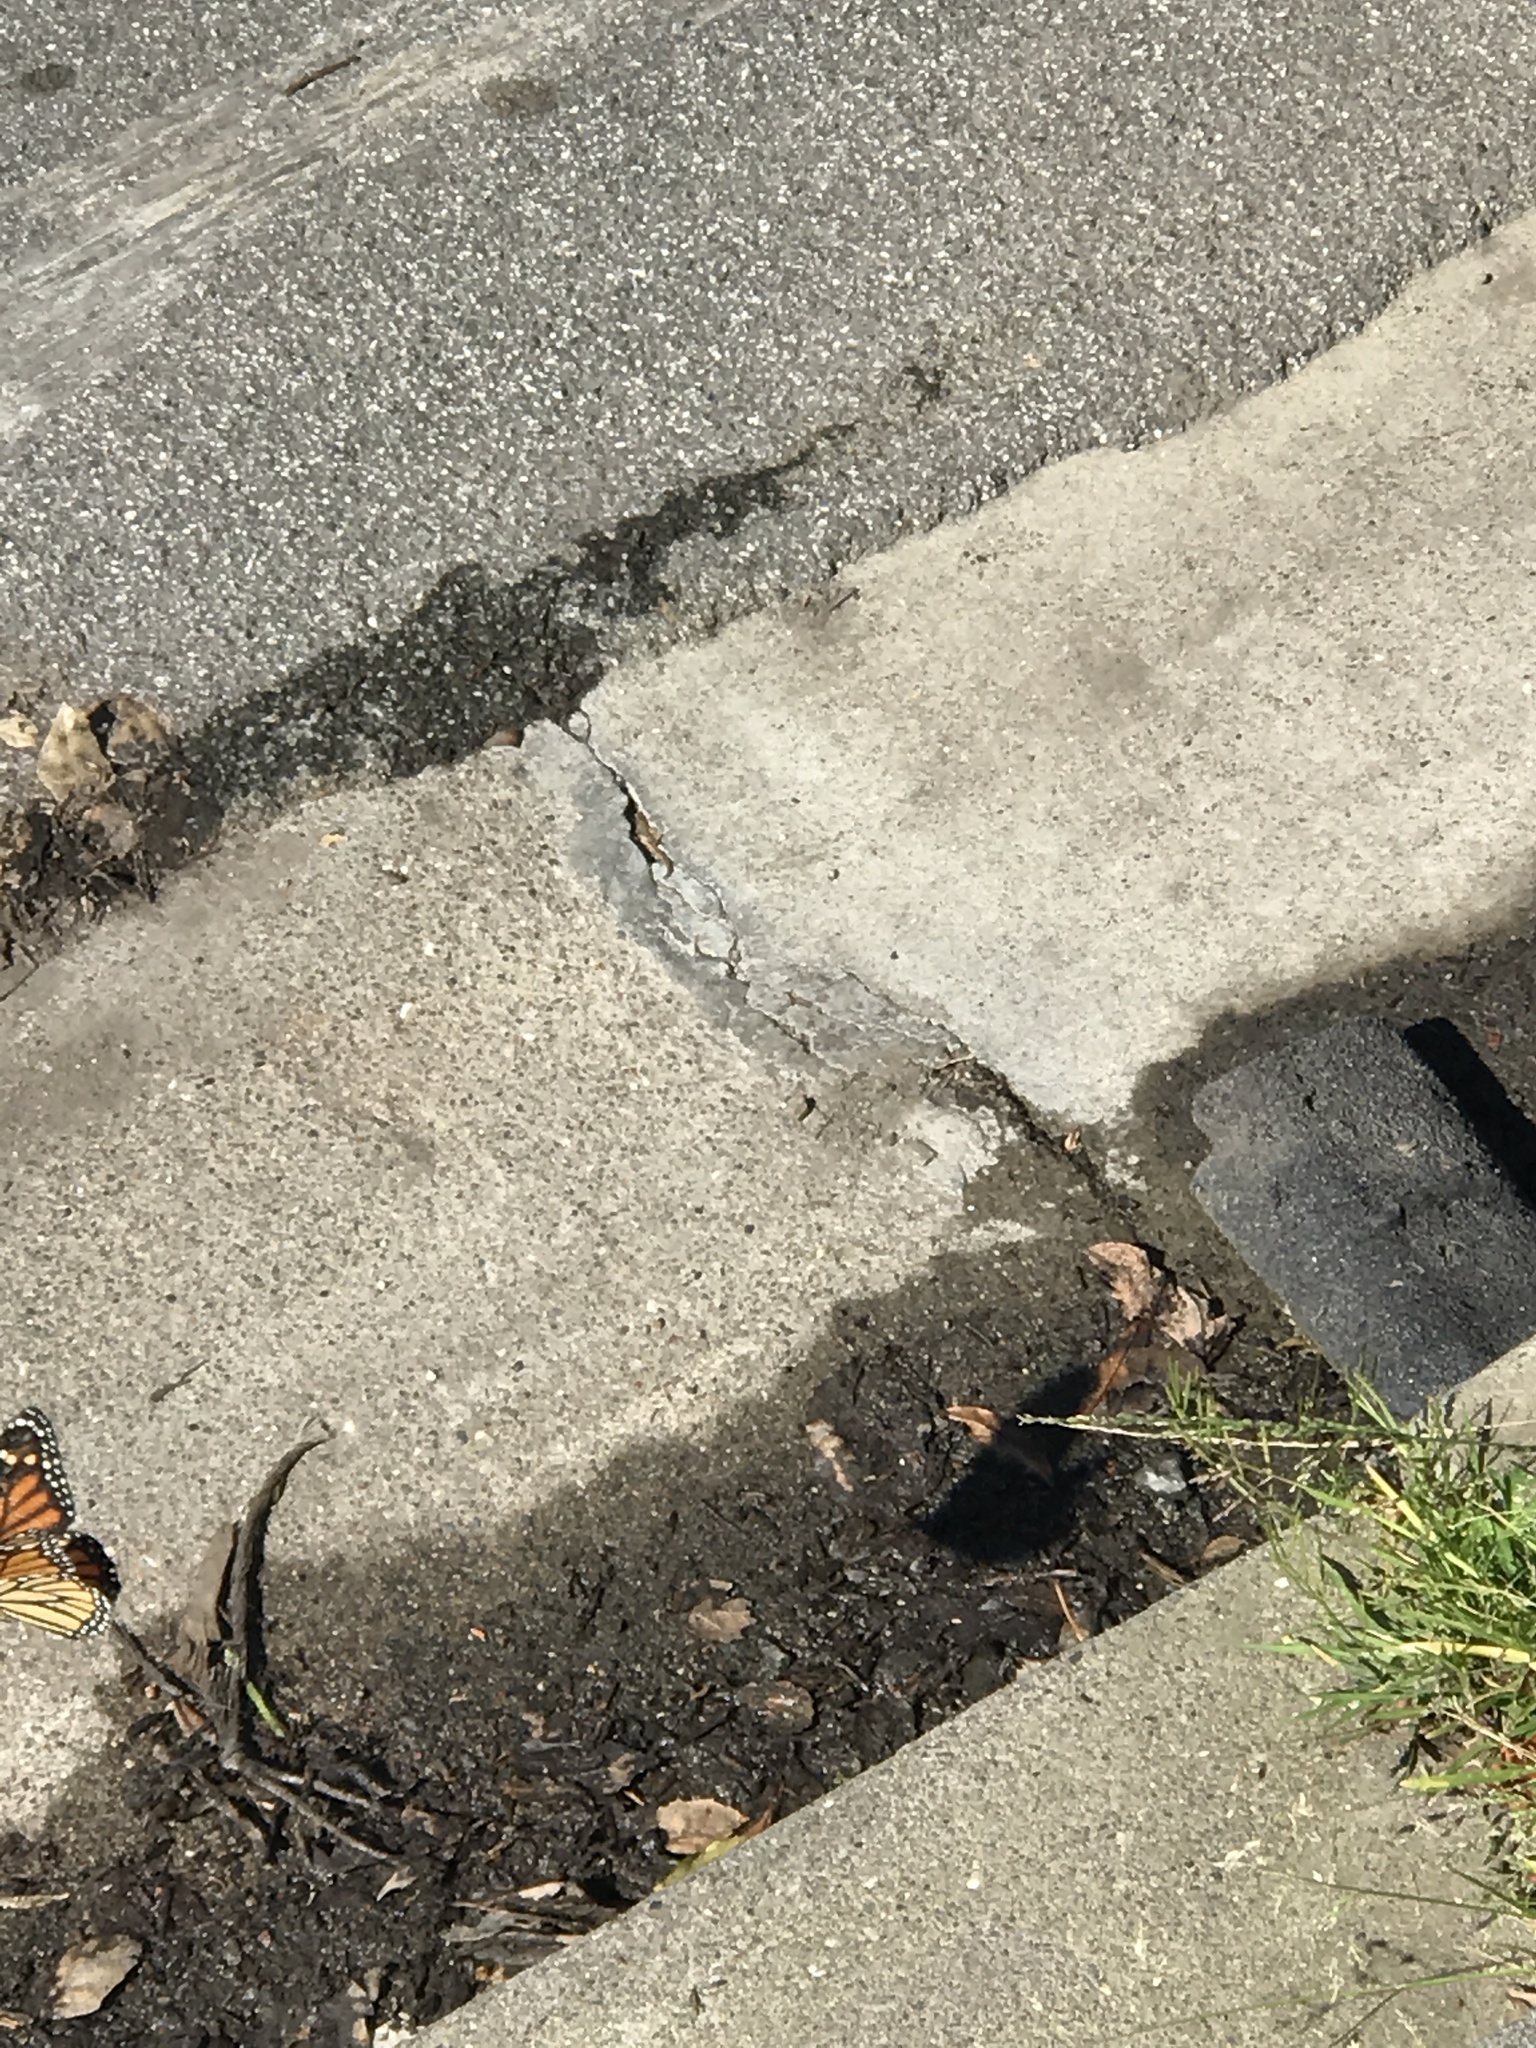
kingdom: Animalia
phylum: Arthropoda
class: Insecta
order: Lepidoptera
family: Nymphalidae
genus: Danaus
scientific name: Danaus plexippus
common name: Monarch
